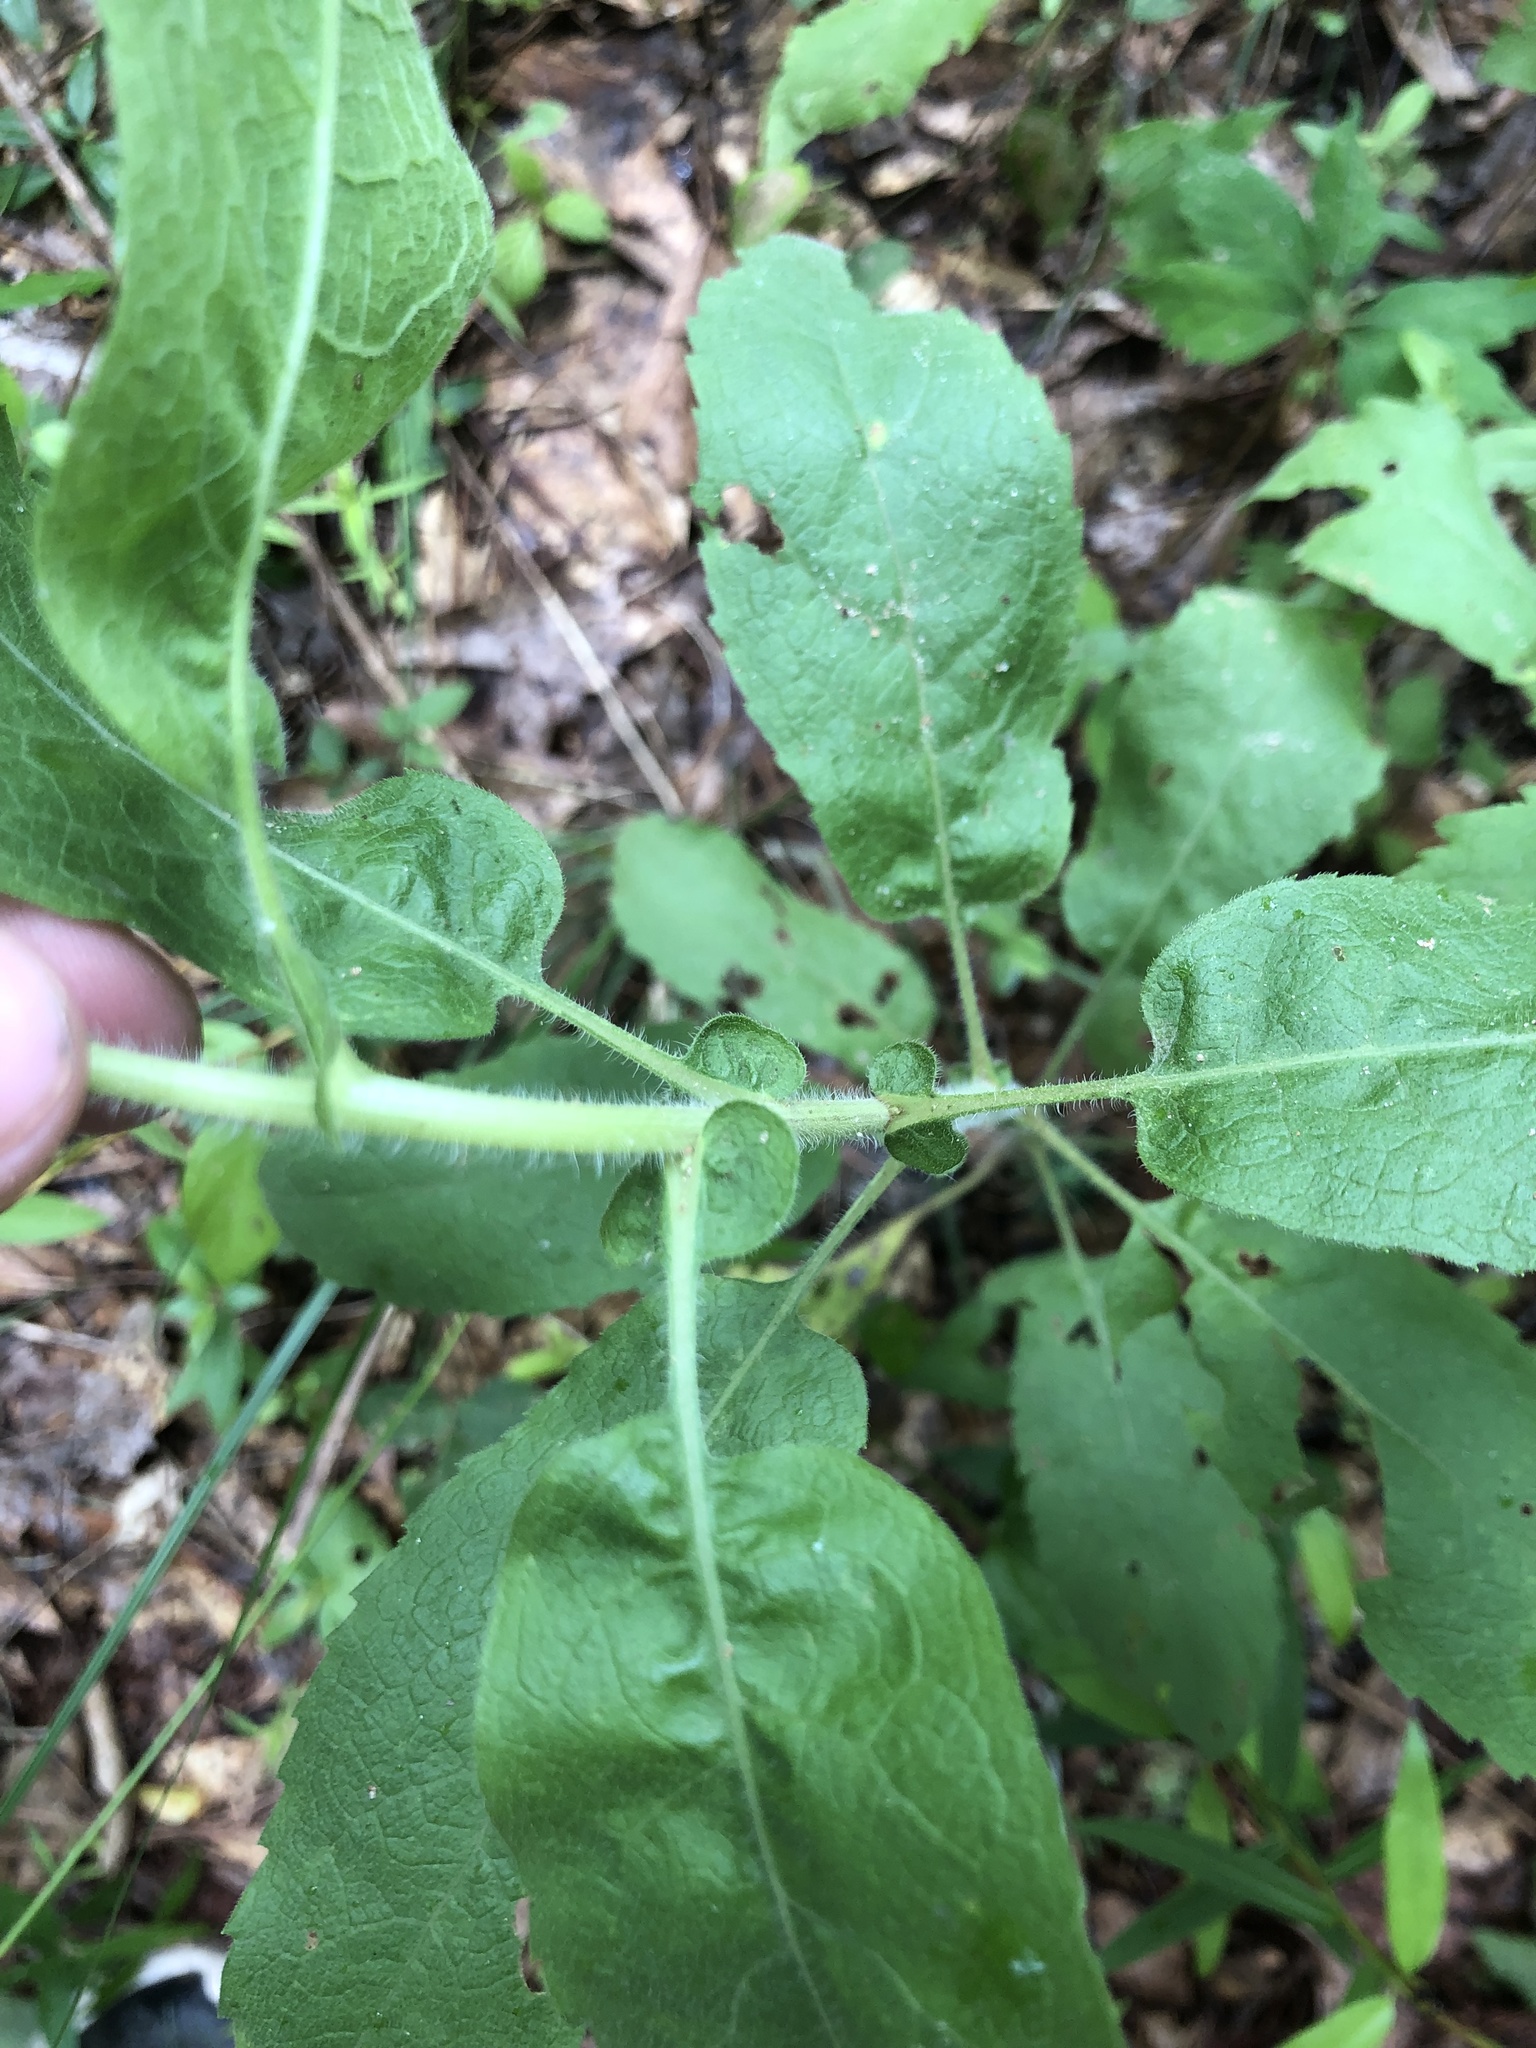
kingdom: Plantae
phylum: Tracheophyta
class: Magnoliopsida
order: Asterales
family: Asteraceae
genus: Heterotheca
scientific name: Heterotheca subaxillaris
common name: Camphorweed
